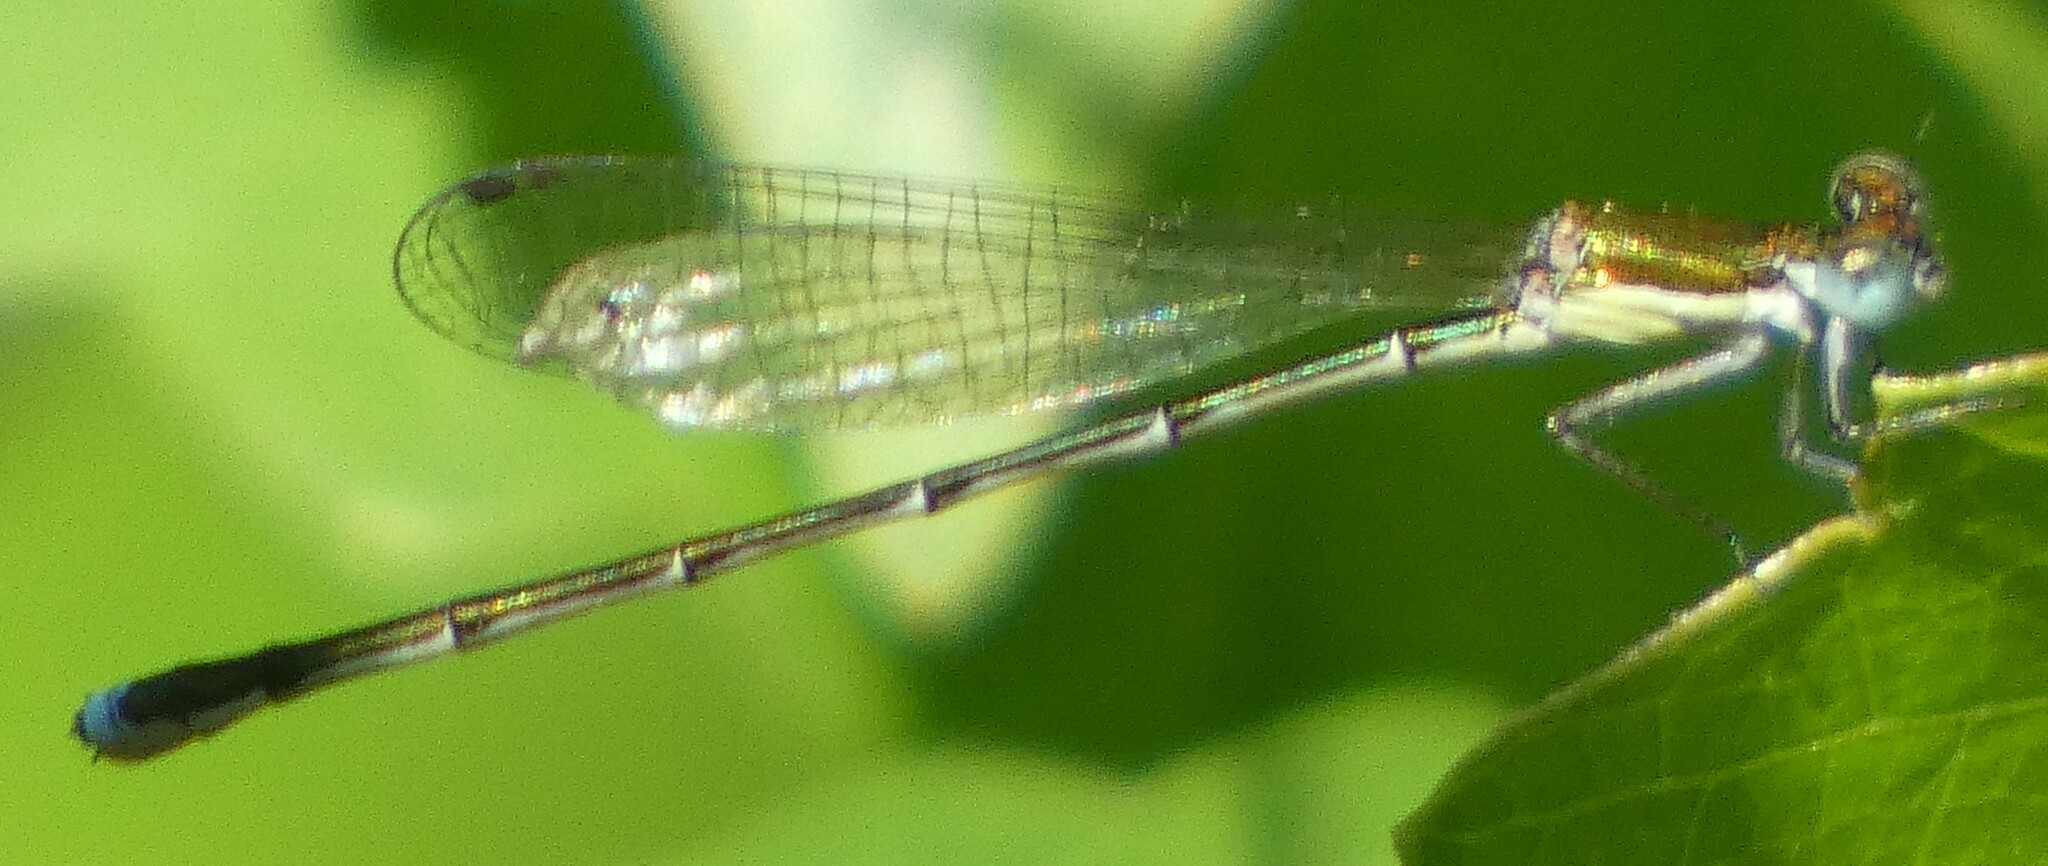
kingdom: Animalia
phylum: Arthropoda
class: Insecta
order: Odonata
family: Coenagrionidae
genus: Nehalennia
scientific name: Nehalennia integricollis
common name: Southern sprite
